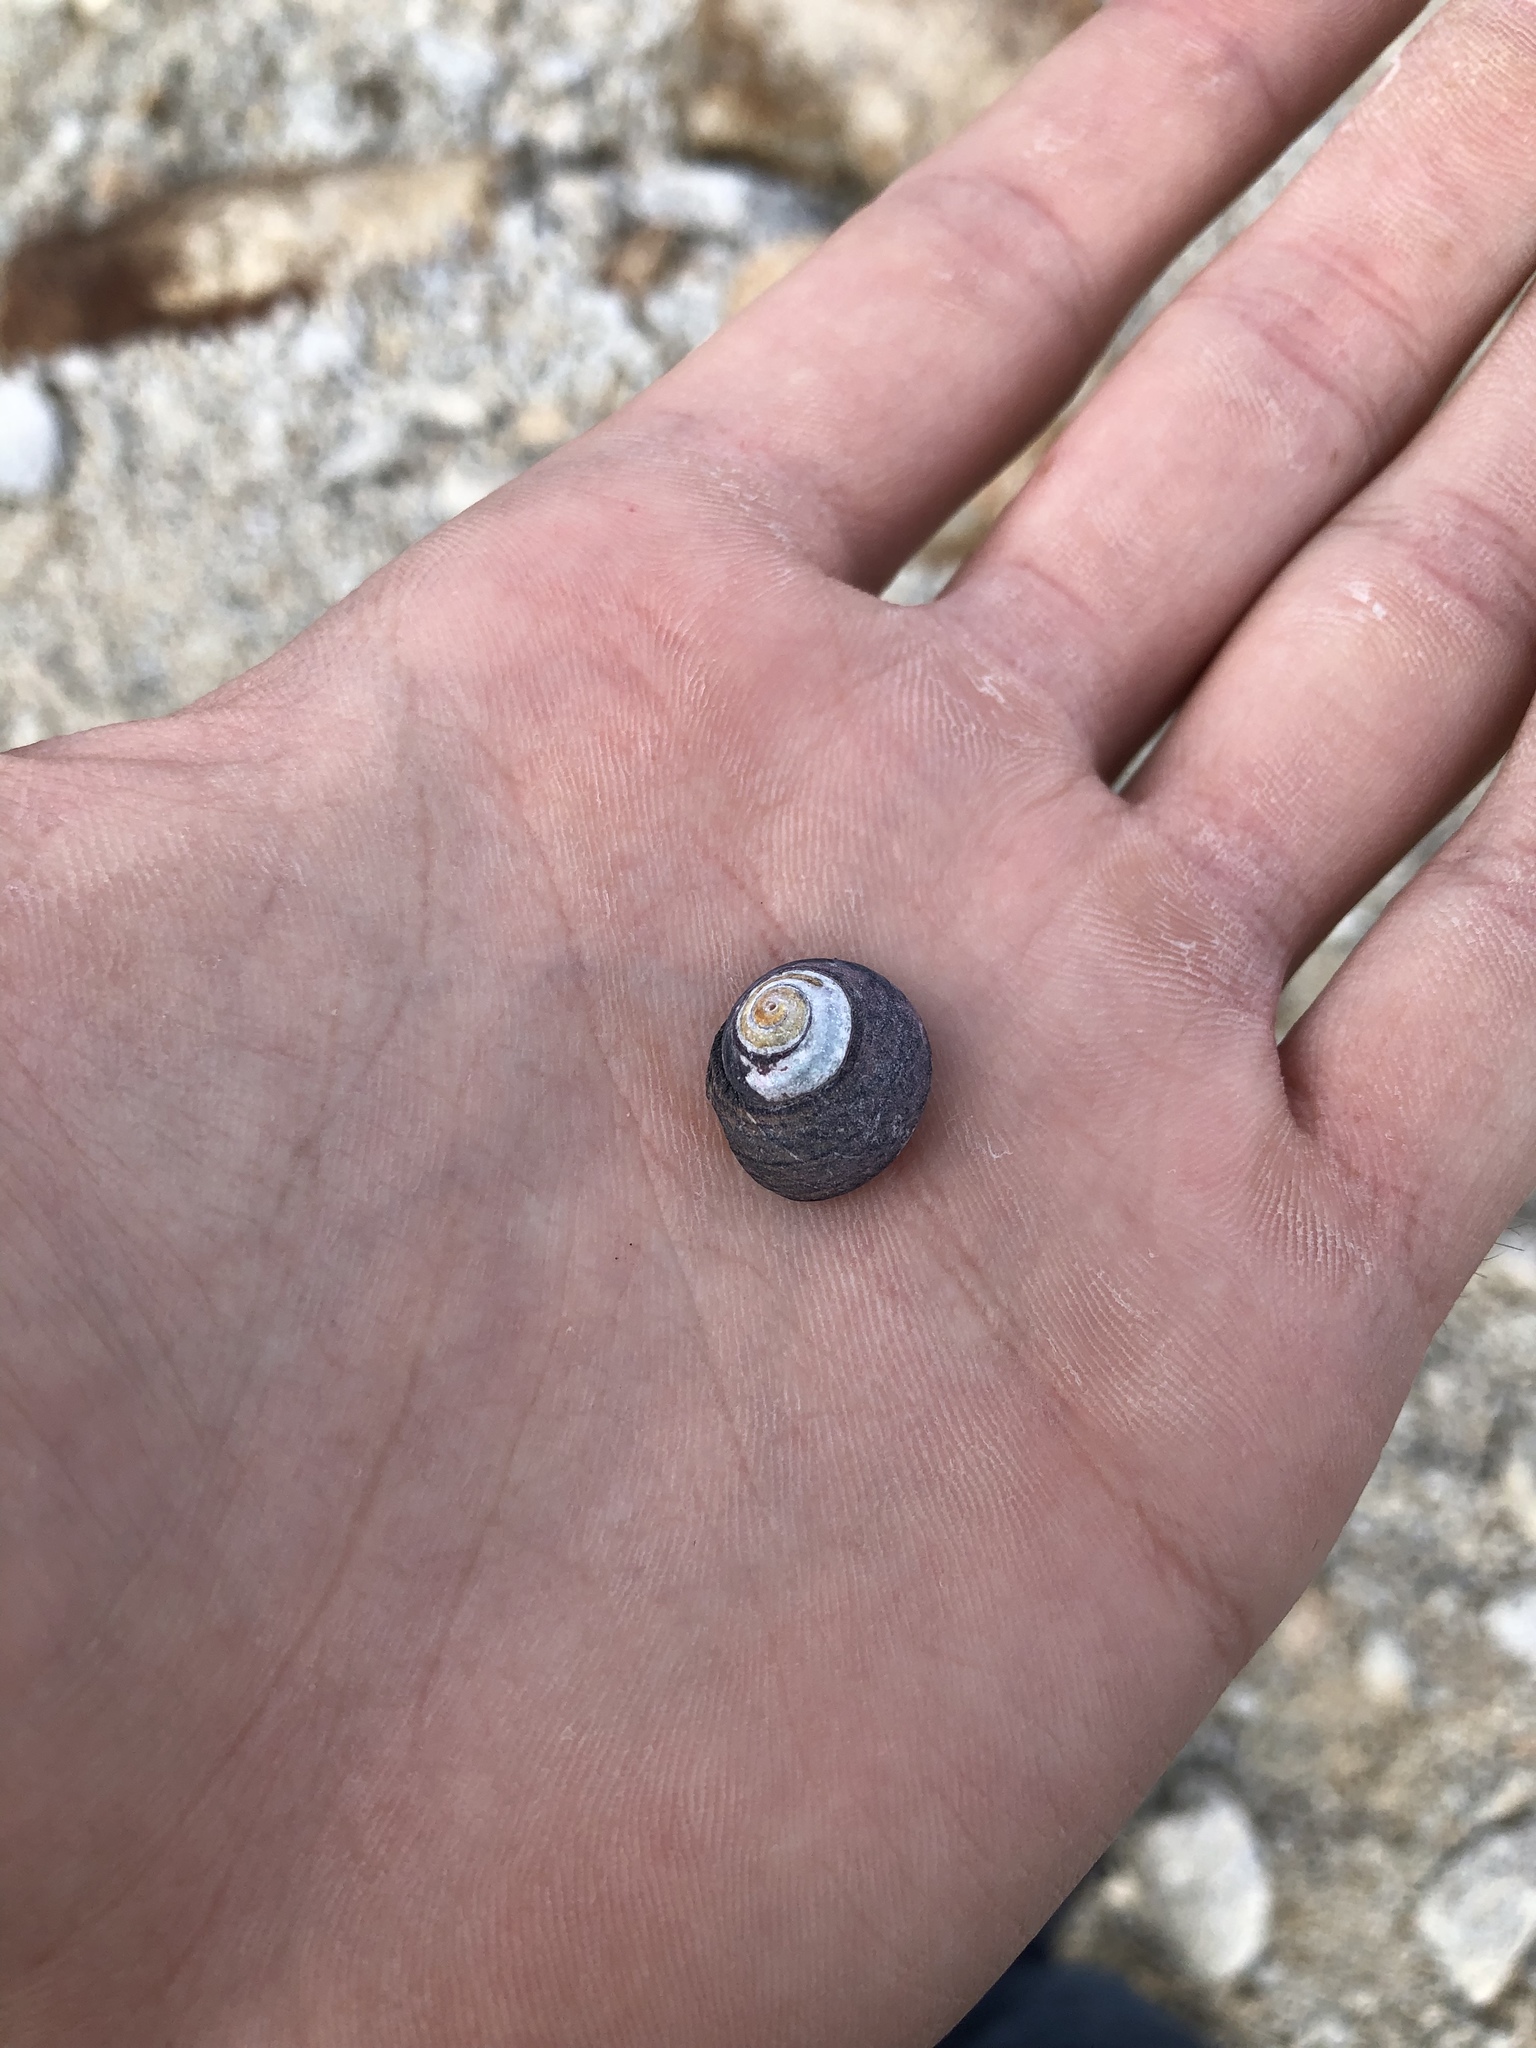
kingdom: Animalia
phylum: Mollusca
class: Gastropoda
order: Trochida
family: Tegulidae
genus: Tegula
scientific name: Tegula funebralis
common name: Black tegula
